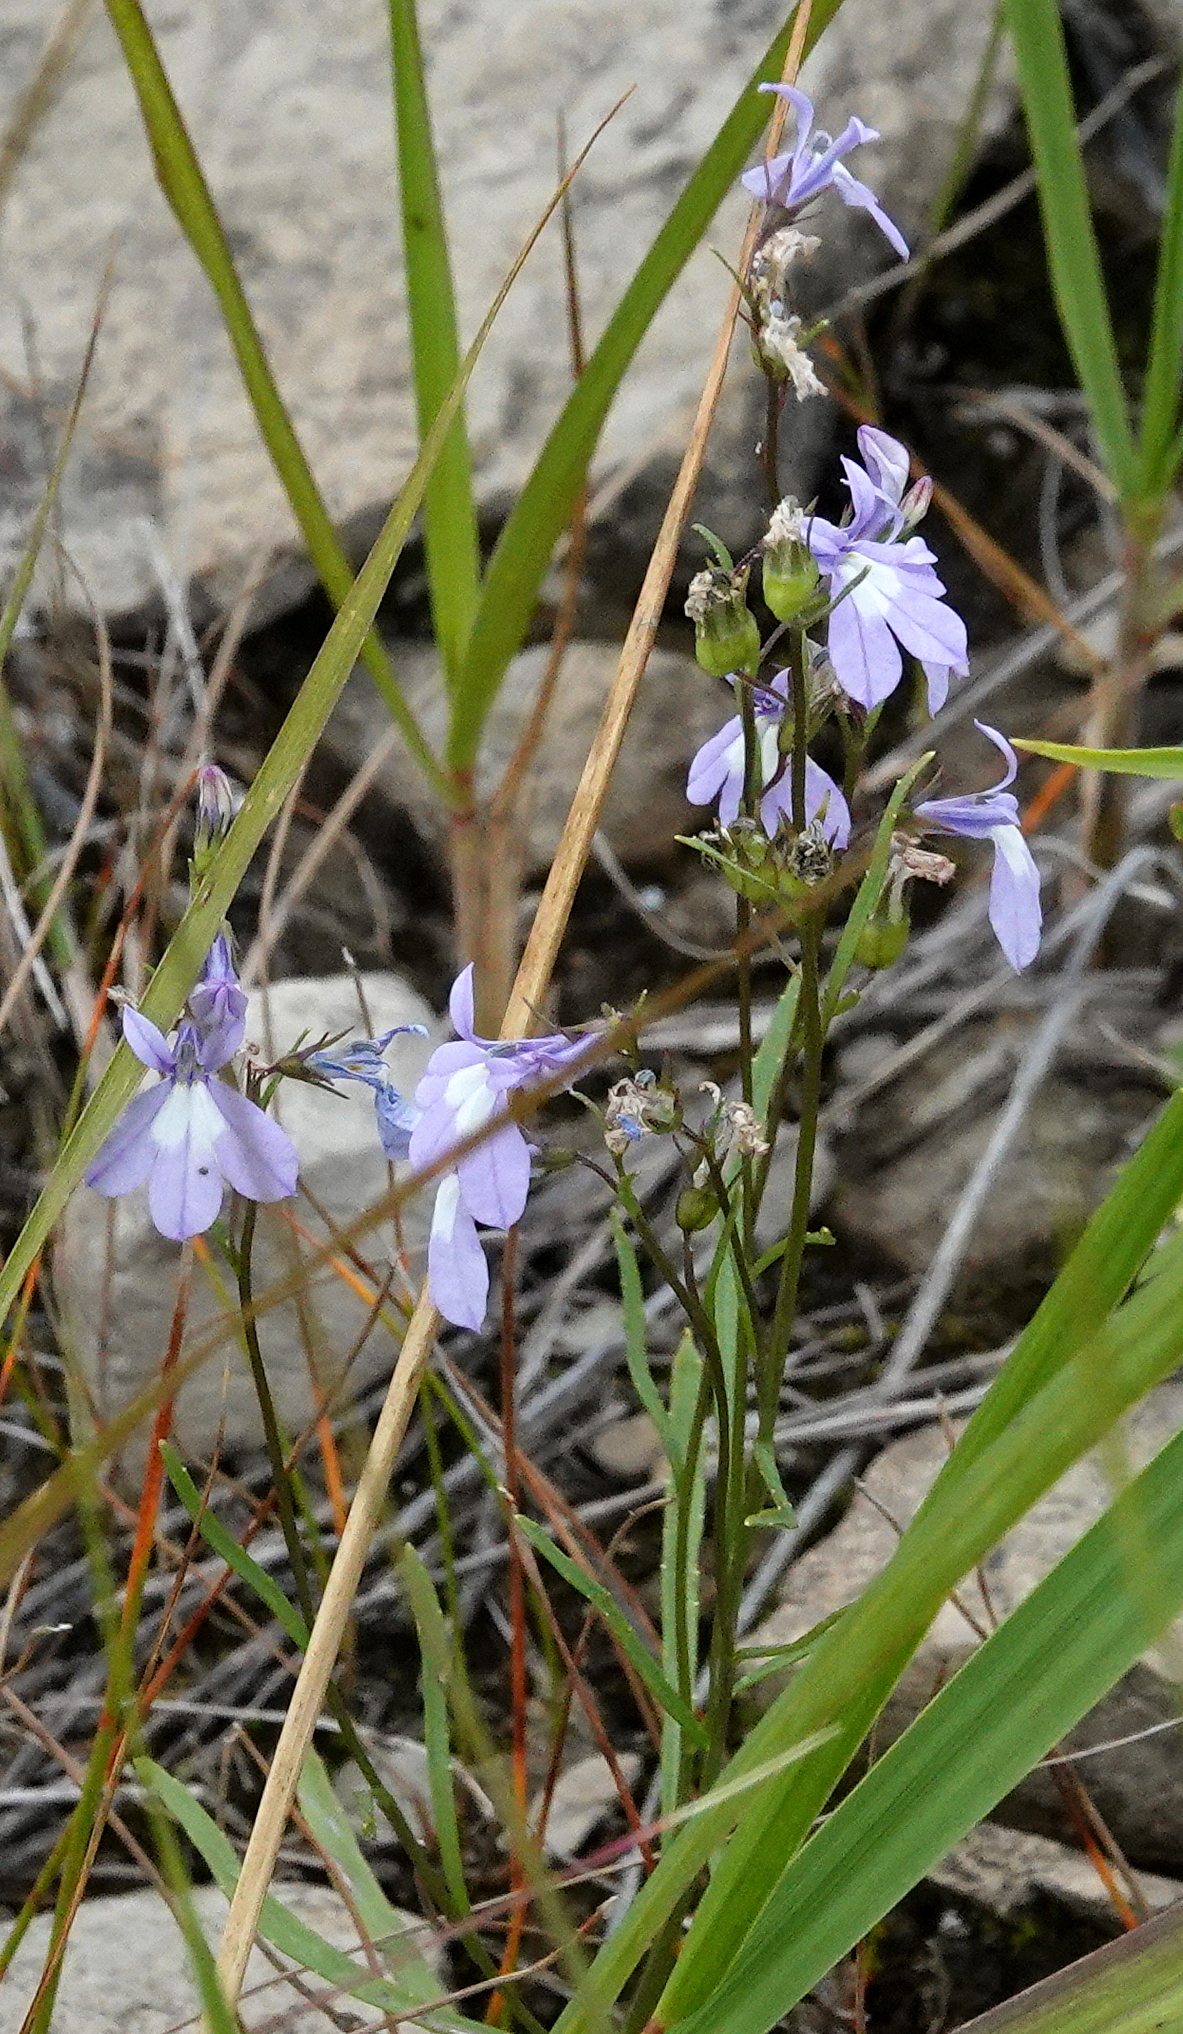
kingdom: Plantae
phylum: Tracheophyta
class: Magnoliopsida
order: Asterales
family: Campanulaceae
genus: Lobelia
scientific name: Lobelia kalmii
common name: Kalm's lobelia
